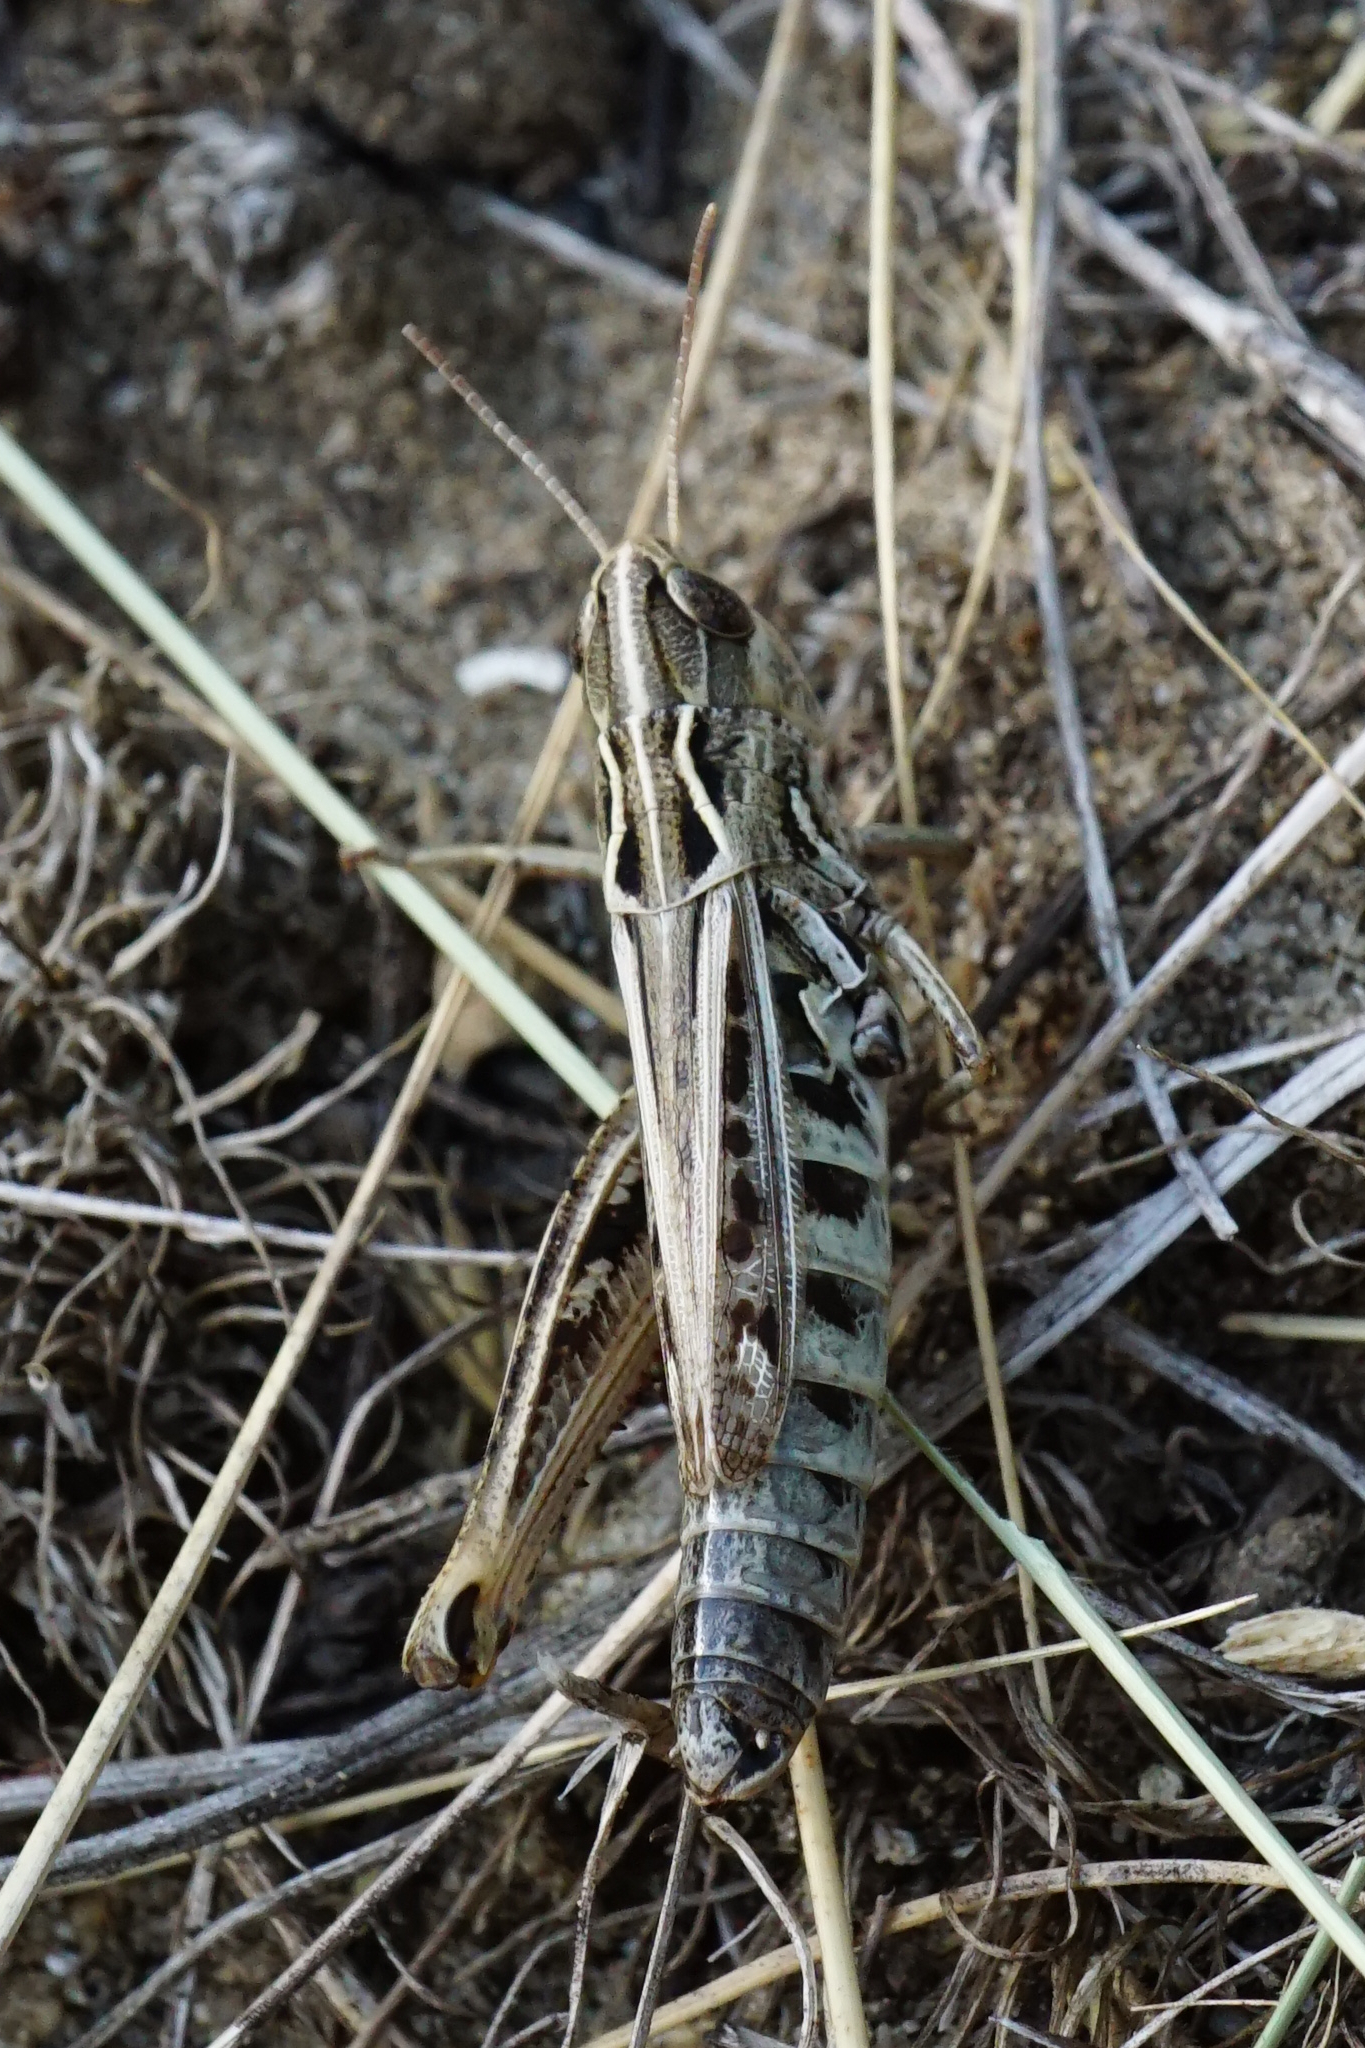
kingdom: Animalia
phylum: Arthropoda
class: Insecta
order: Orthoptera
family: Acrididae
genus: Stenobothrus
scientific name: Stenobothrus nigromaculatus
